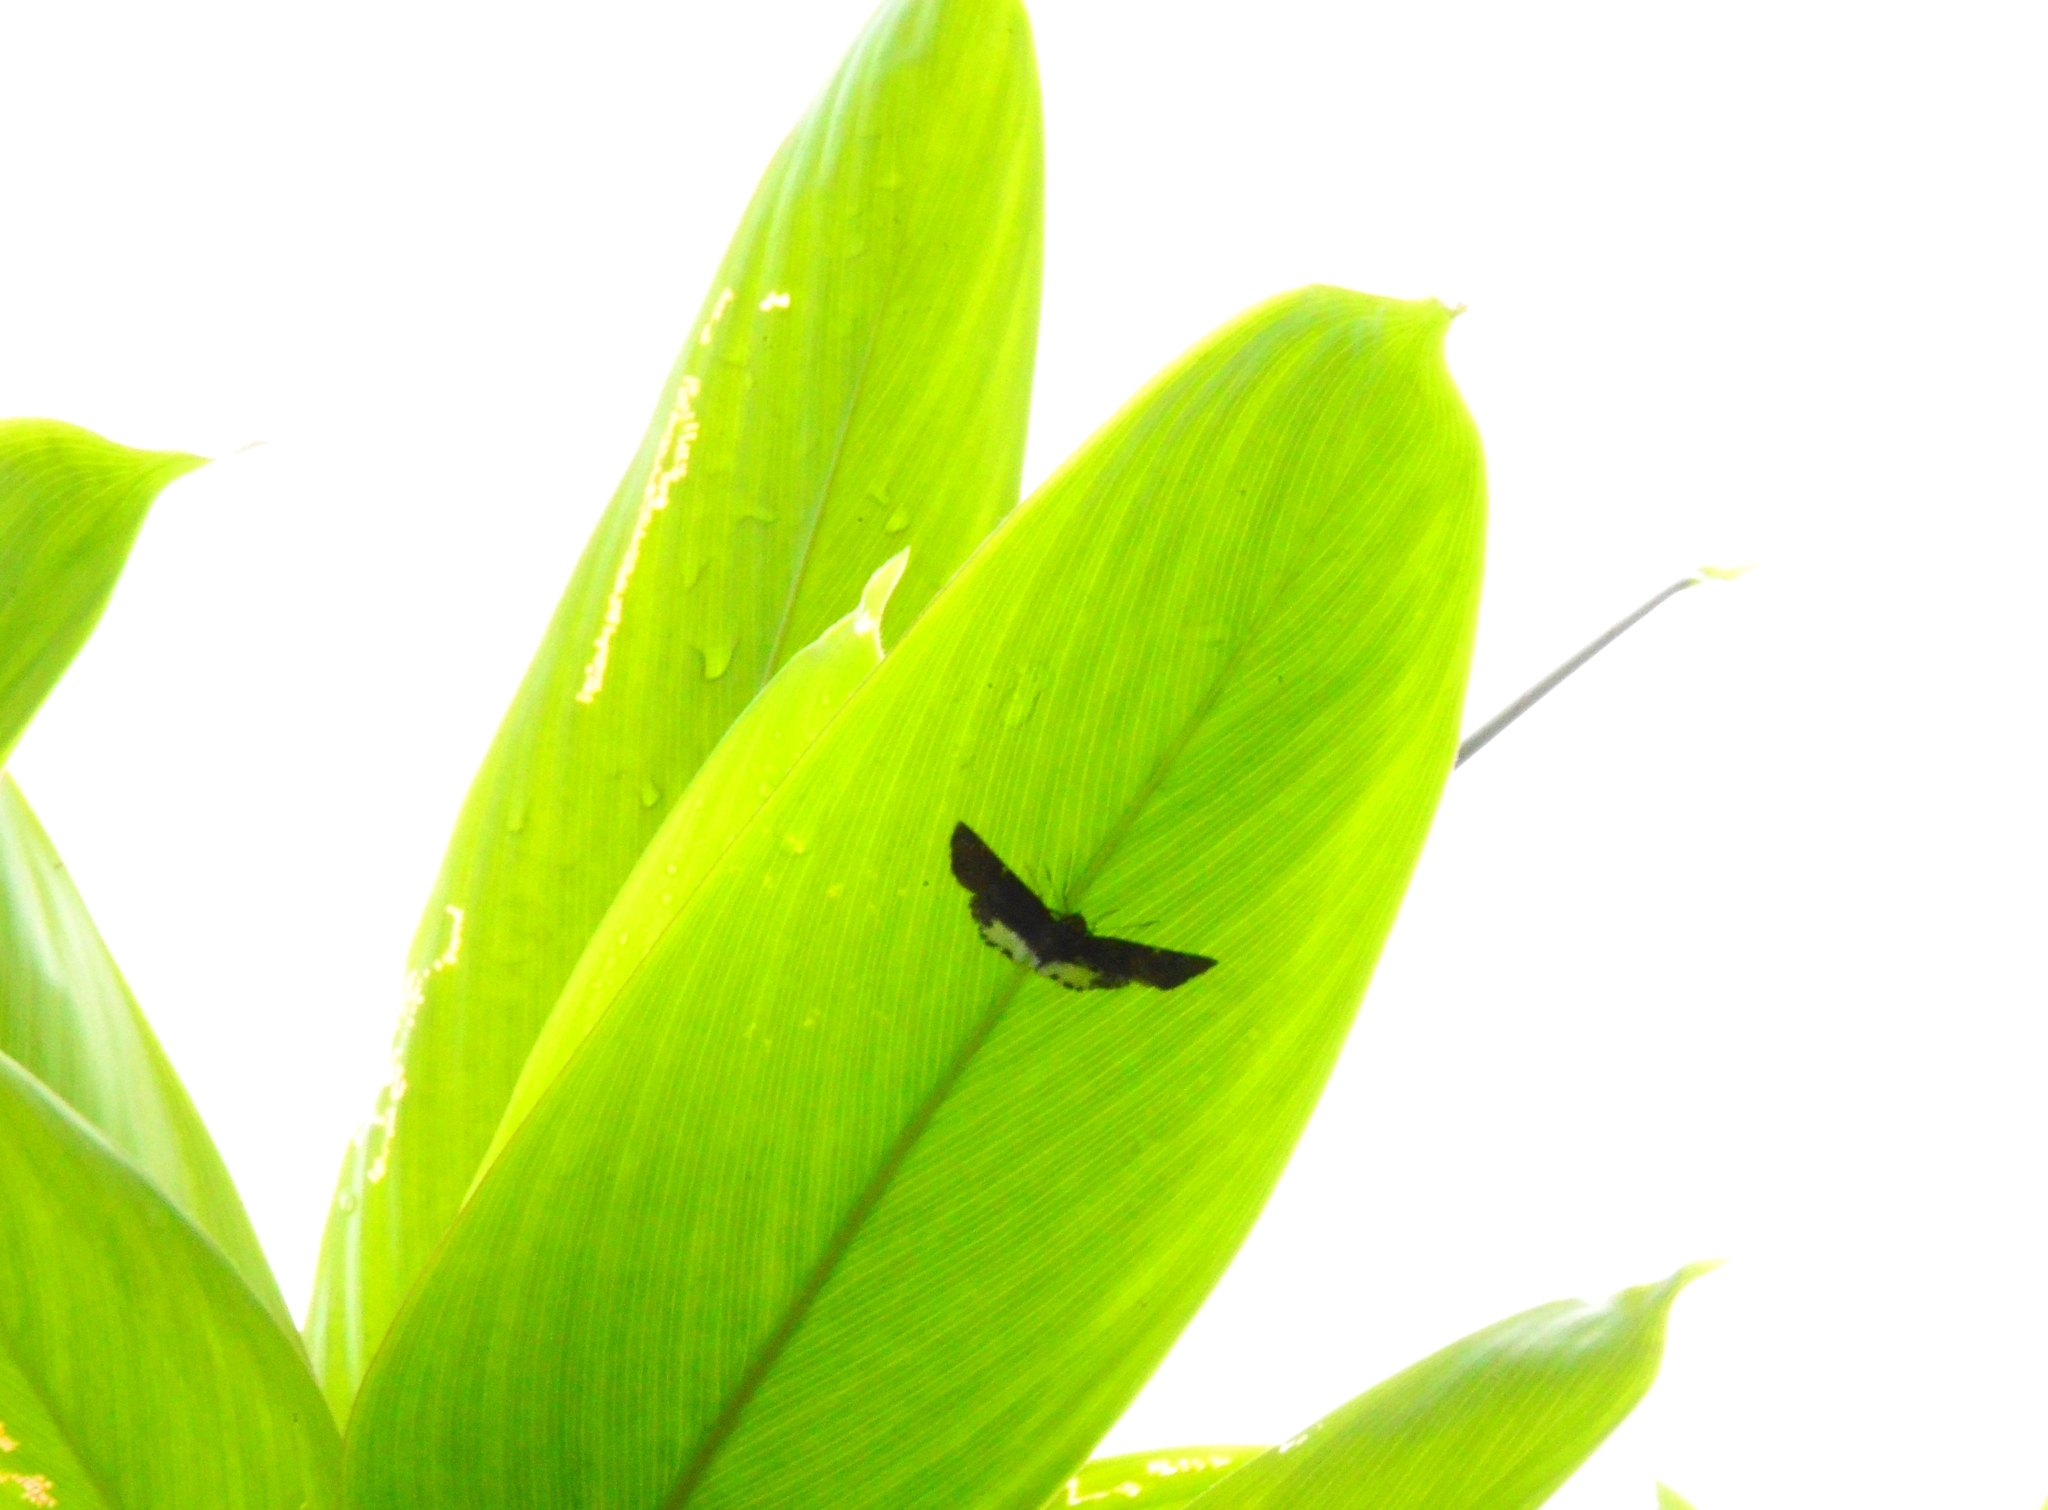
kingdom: Animalia
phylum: Arthropoda
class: Insecta
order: Lepidoptera
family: Hesperiidae
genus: Tagiades
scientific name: Tagiades litigiosa
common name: Water snow flat
